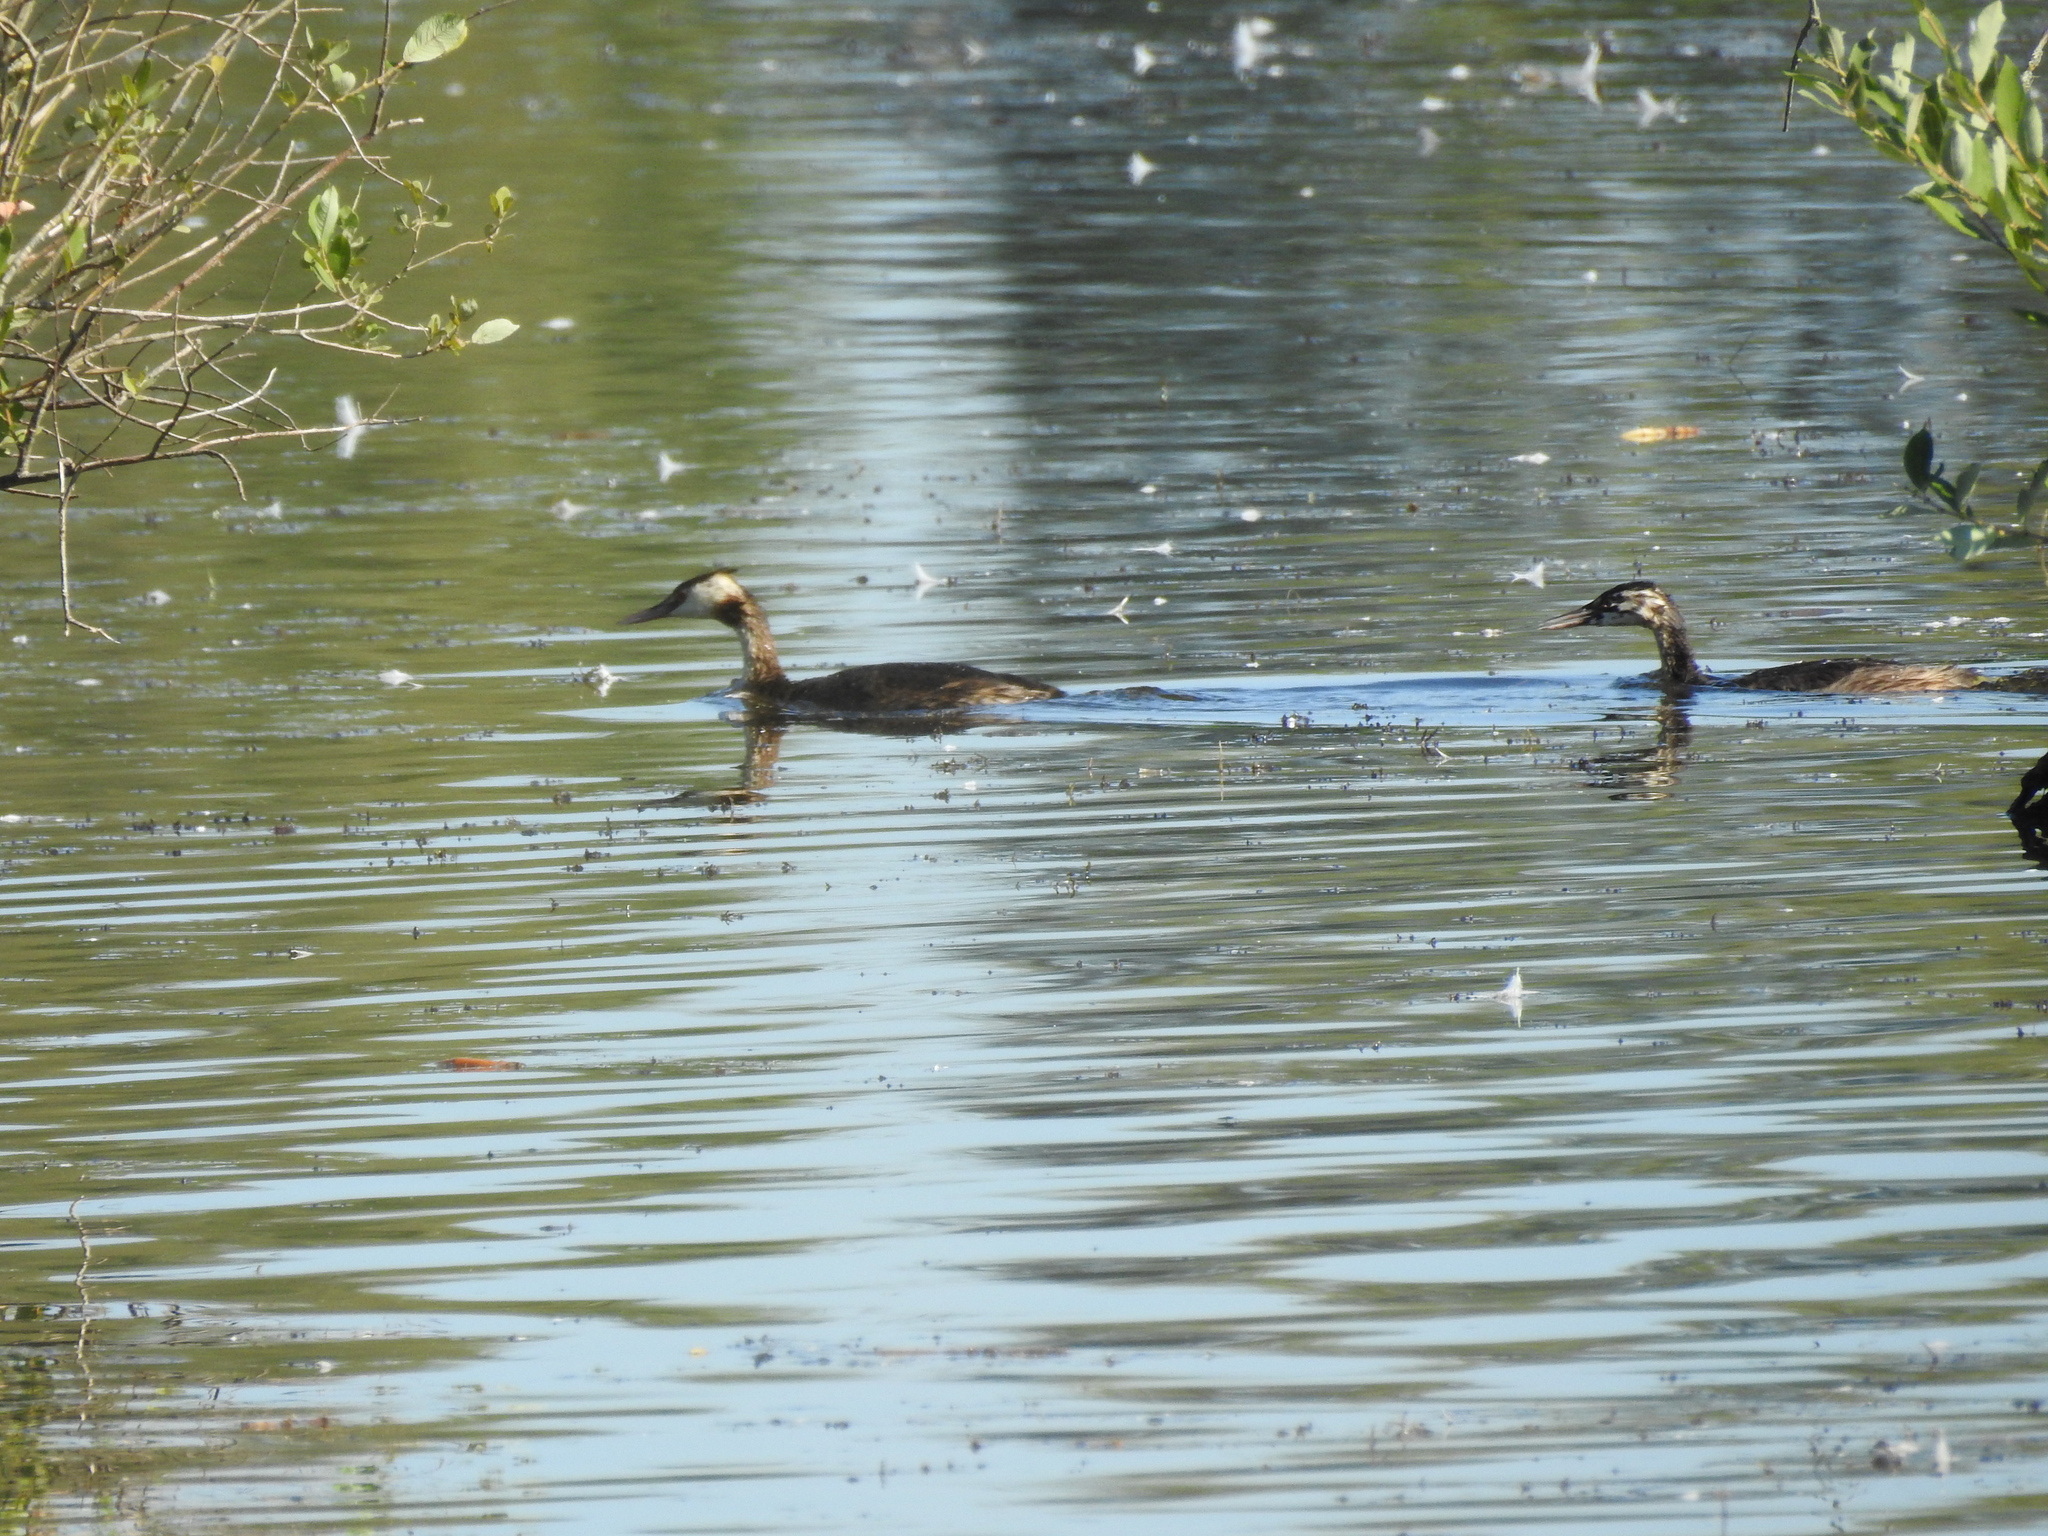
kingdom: Animalia
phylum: Chordata
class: Aves
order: Podicipediformes
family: Podicipedidae
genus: Podiceps
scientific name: Podiceps cristatus
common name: Great crested grebe
